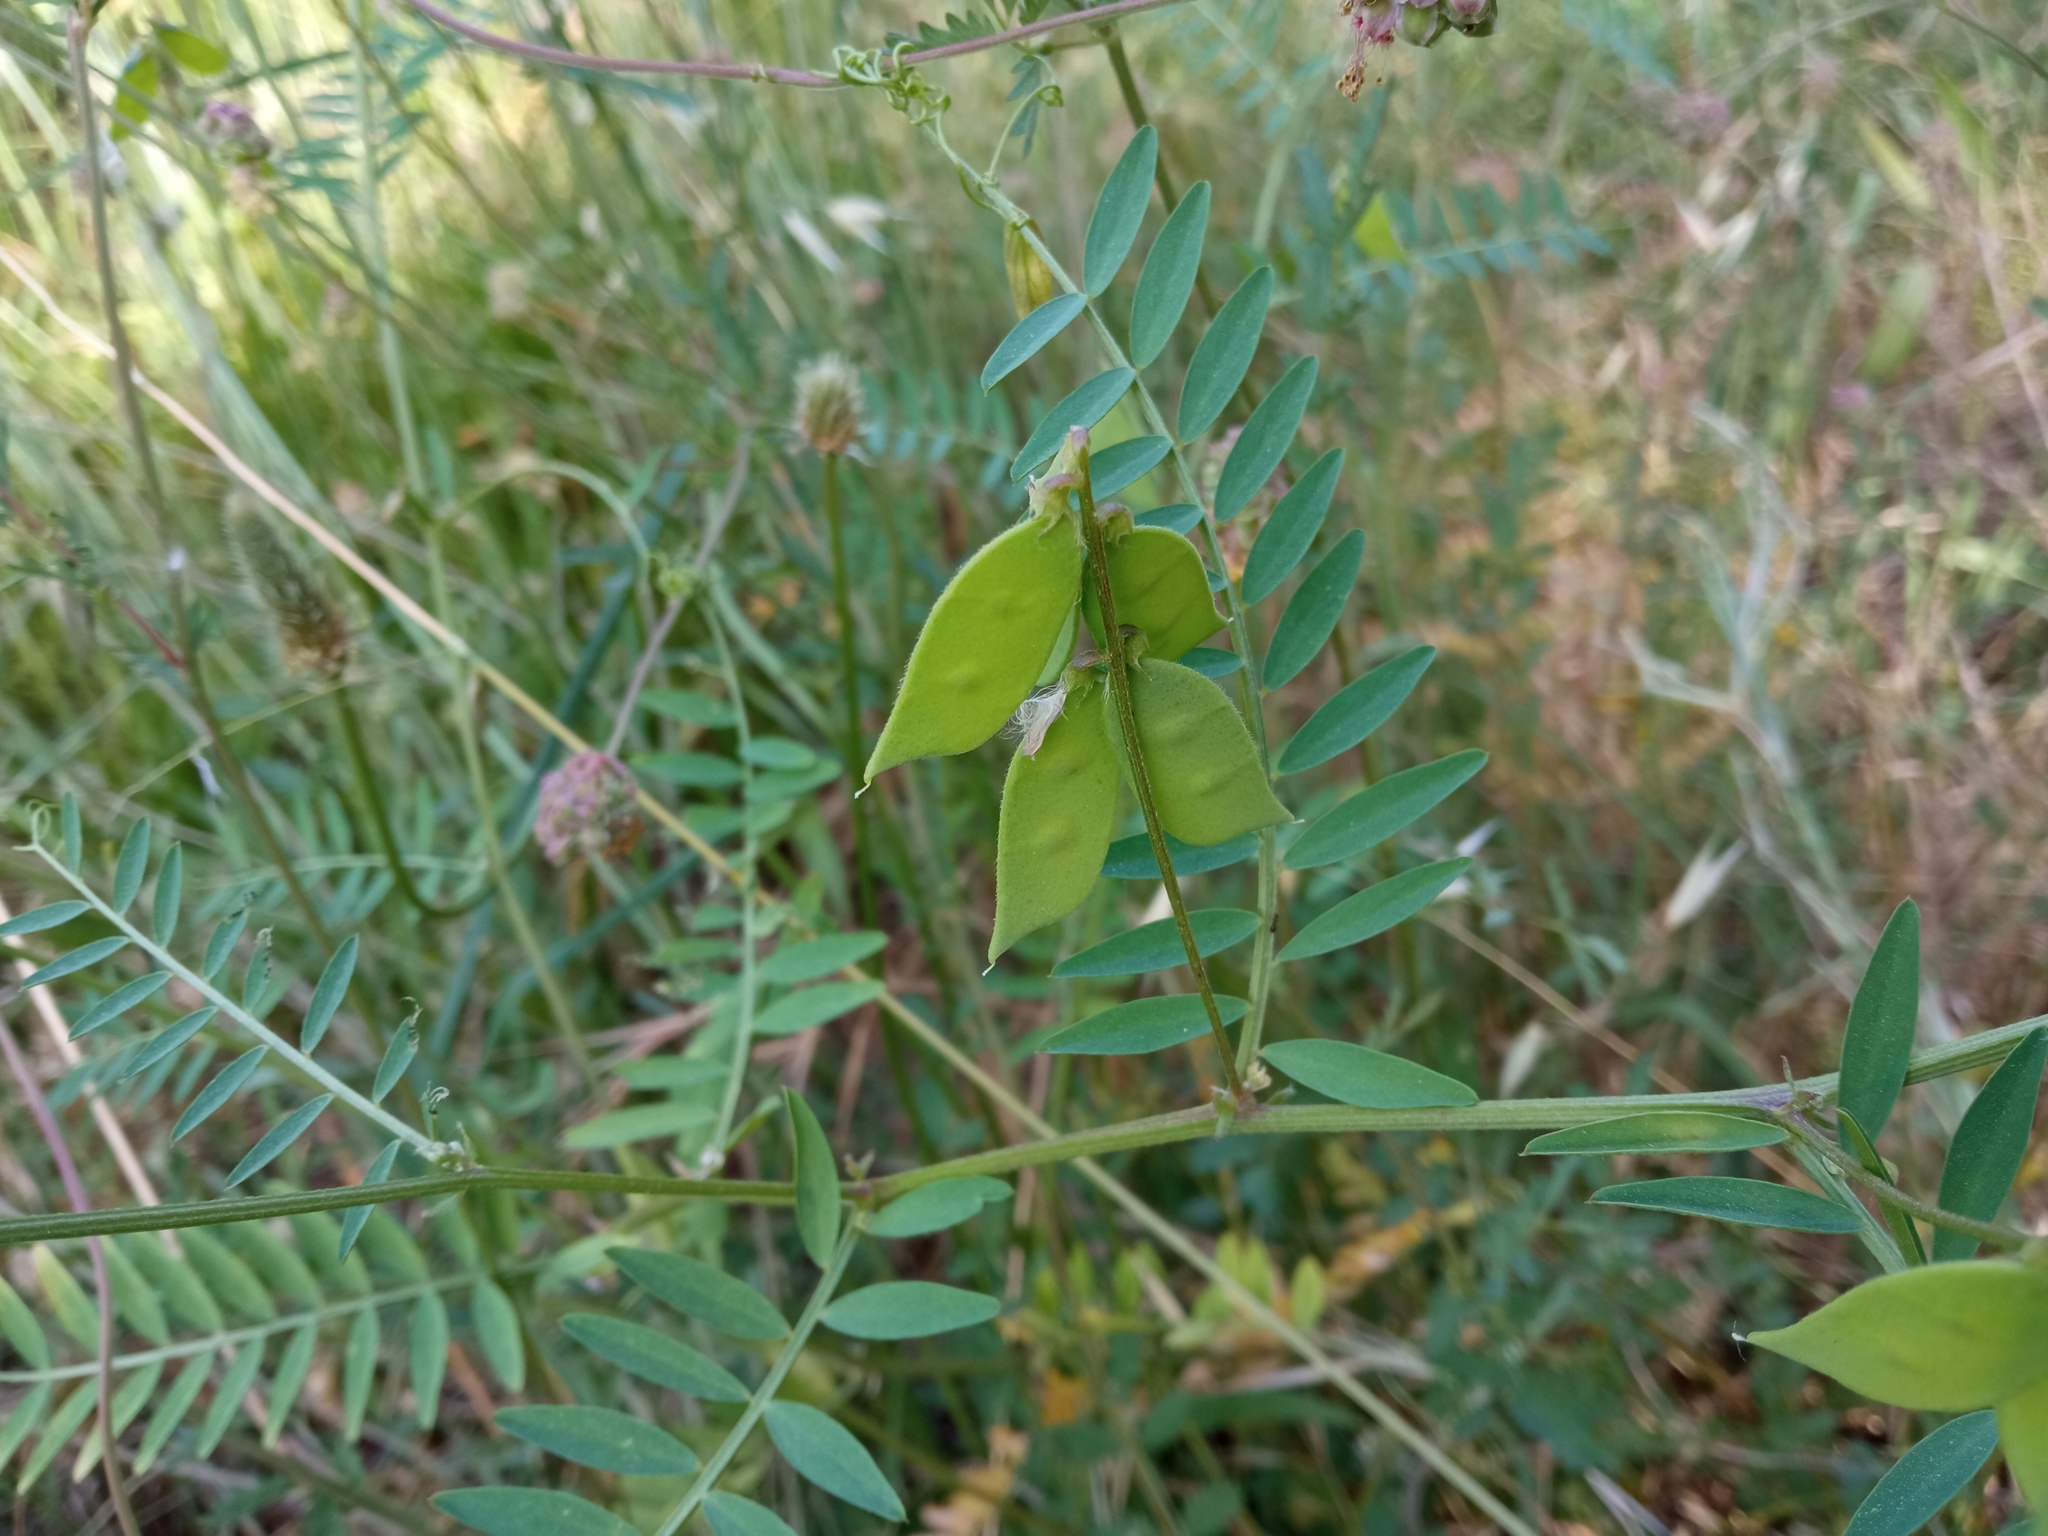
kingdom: Plantae
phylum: Tracheophyta
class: Magnoliopsida
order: Fabales
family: Fabaceae
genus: Vicia
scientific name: Vicia disperma
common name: European vetch
